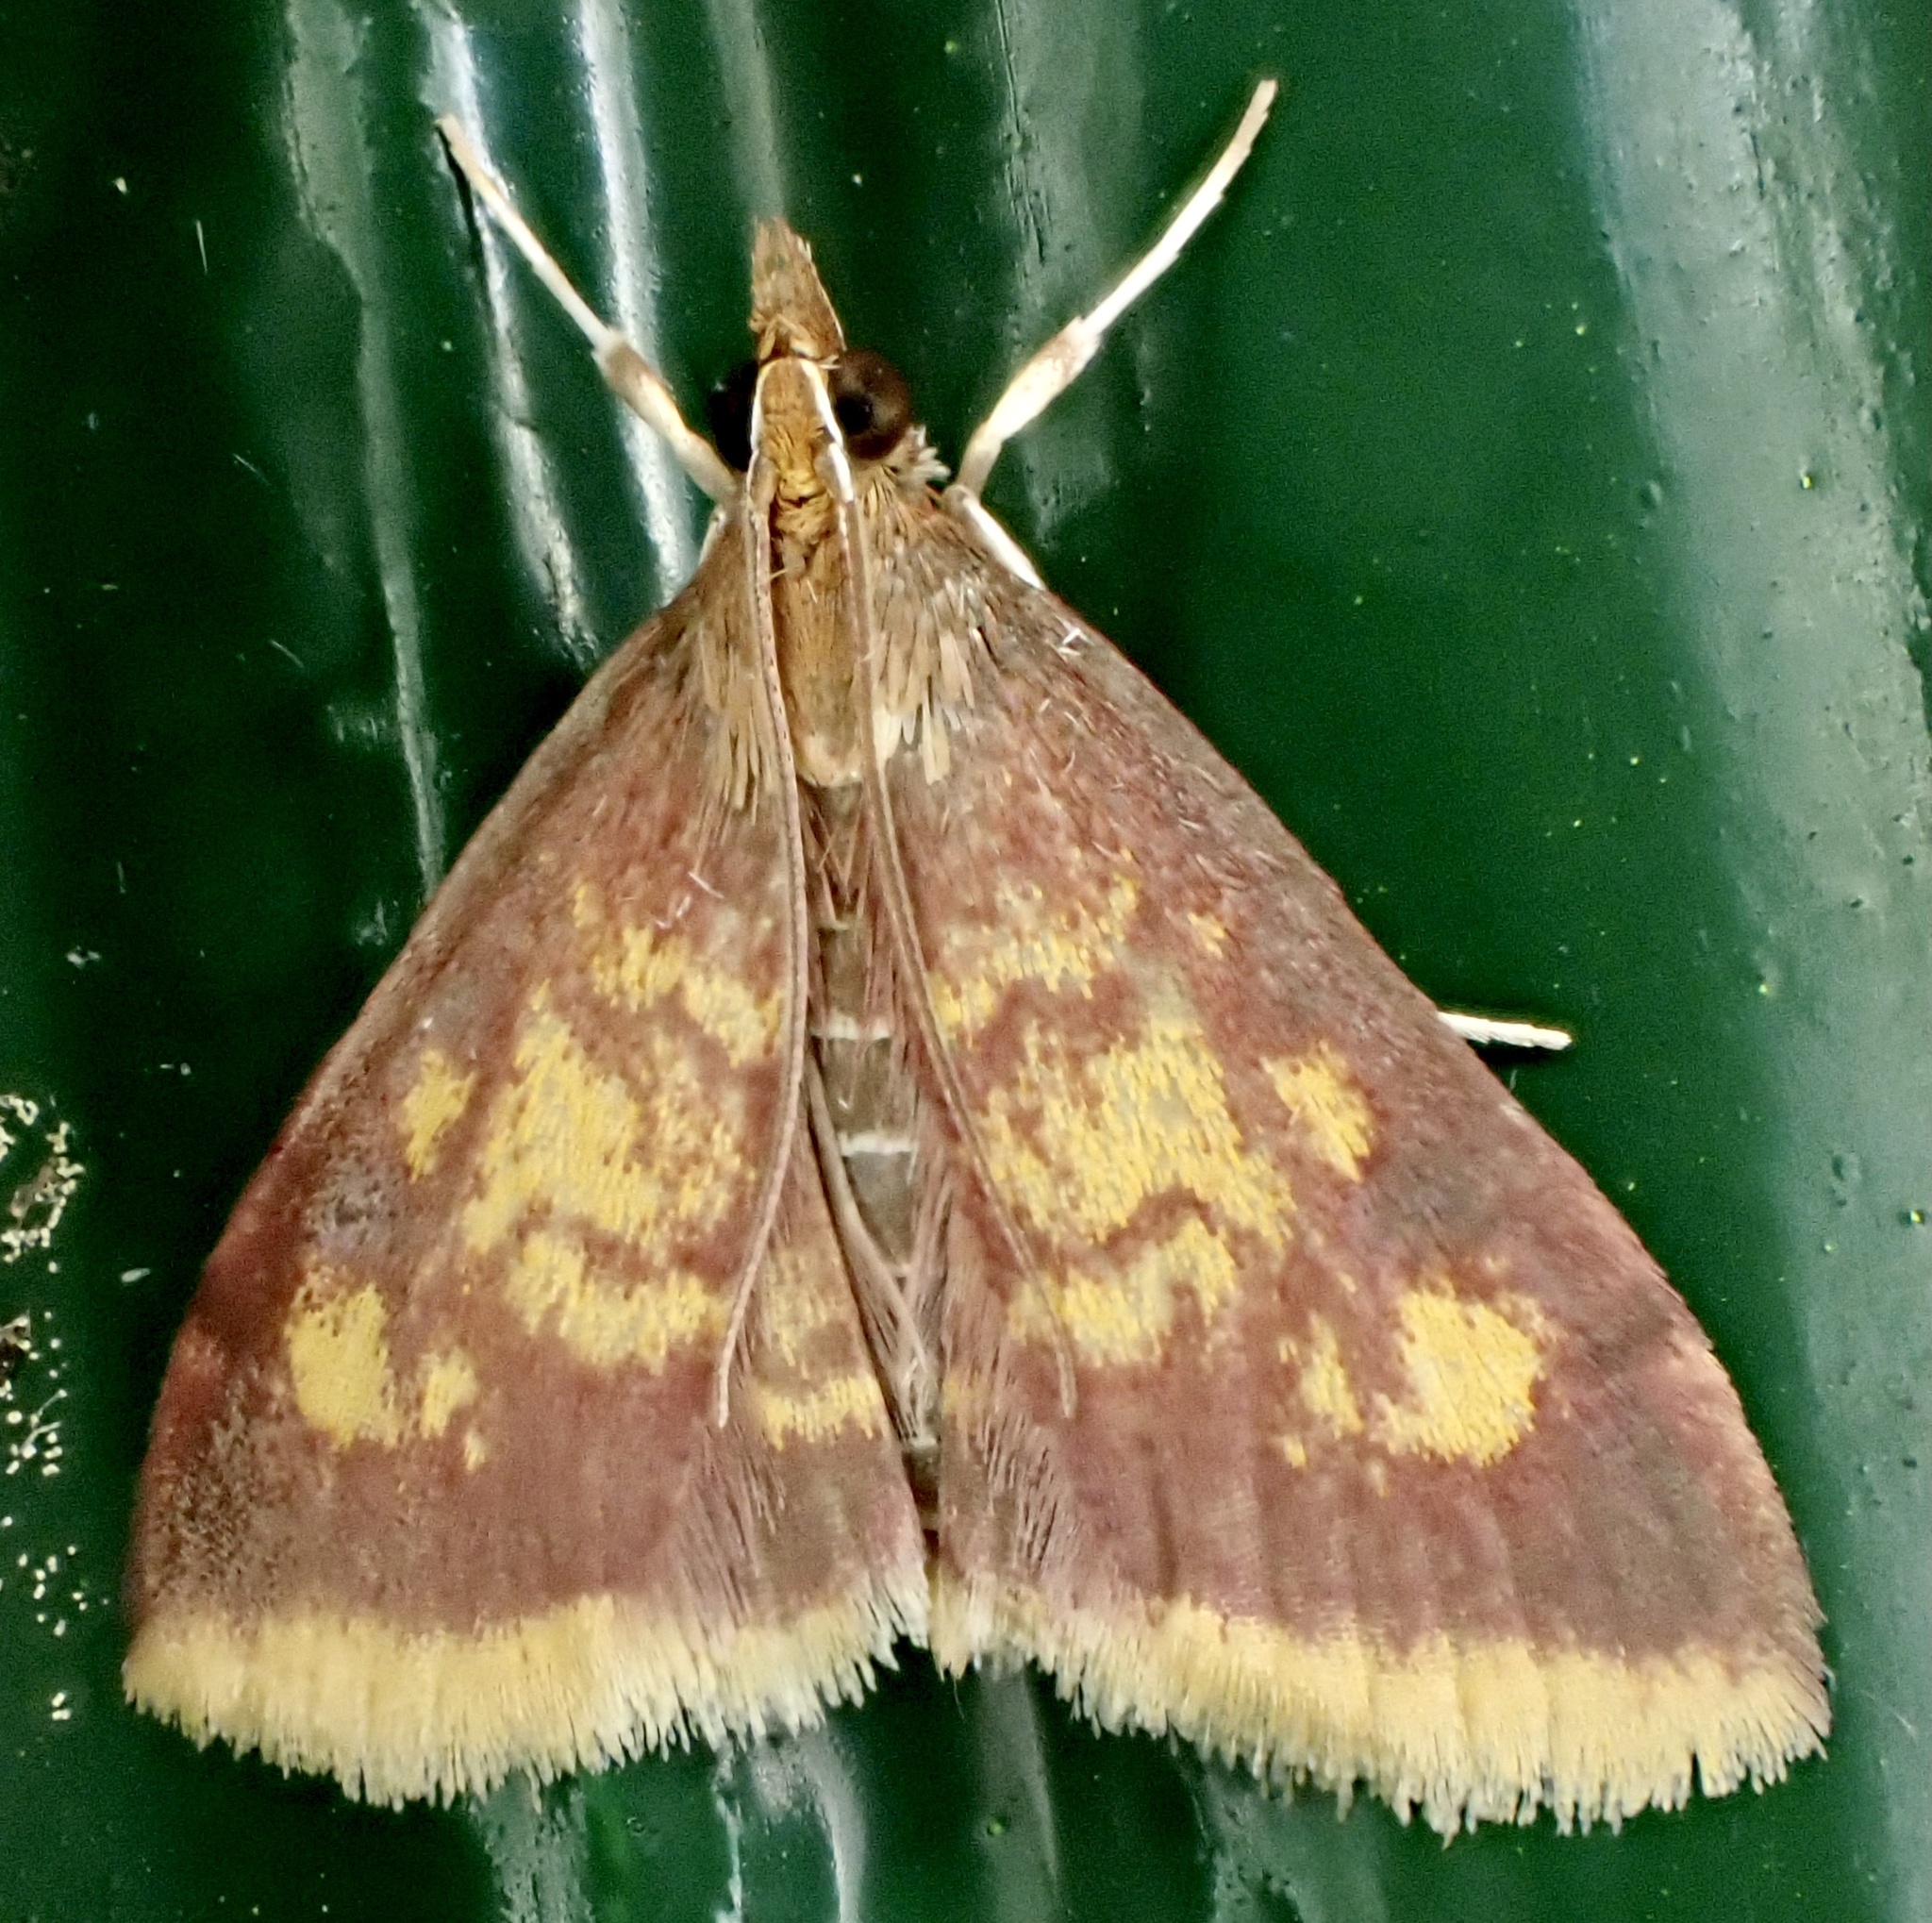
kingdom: Animalia
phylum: Arthropoda
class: Insecta
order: Lepidoptera
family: Crambidae
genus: Pyrausta
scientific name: Pyrausta acrionalis
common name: Mint-loving pyrausta moth
